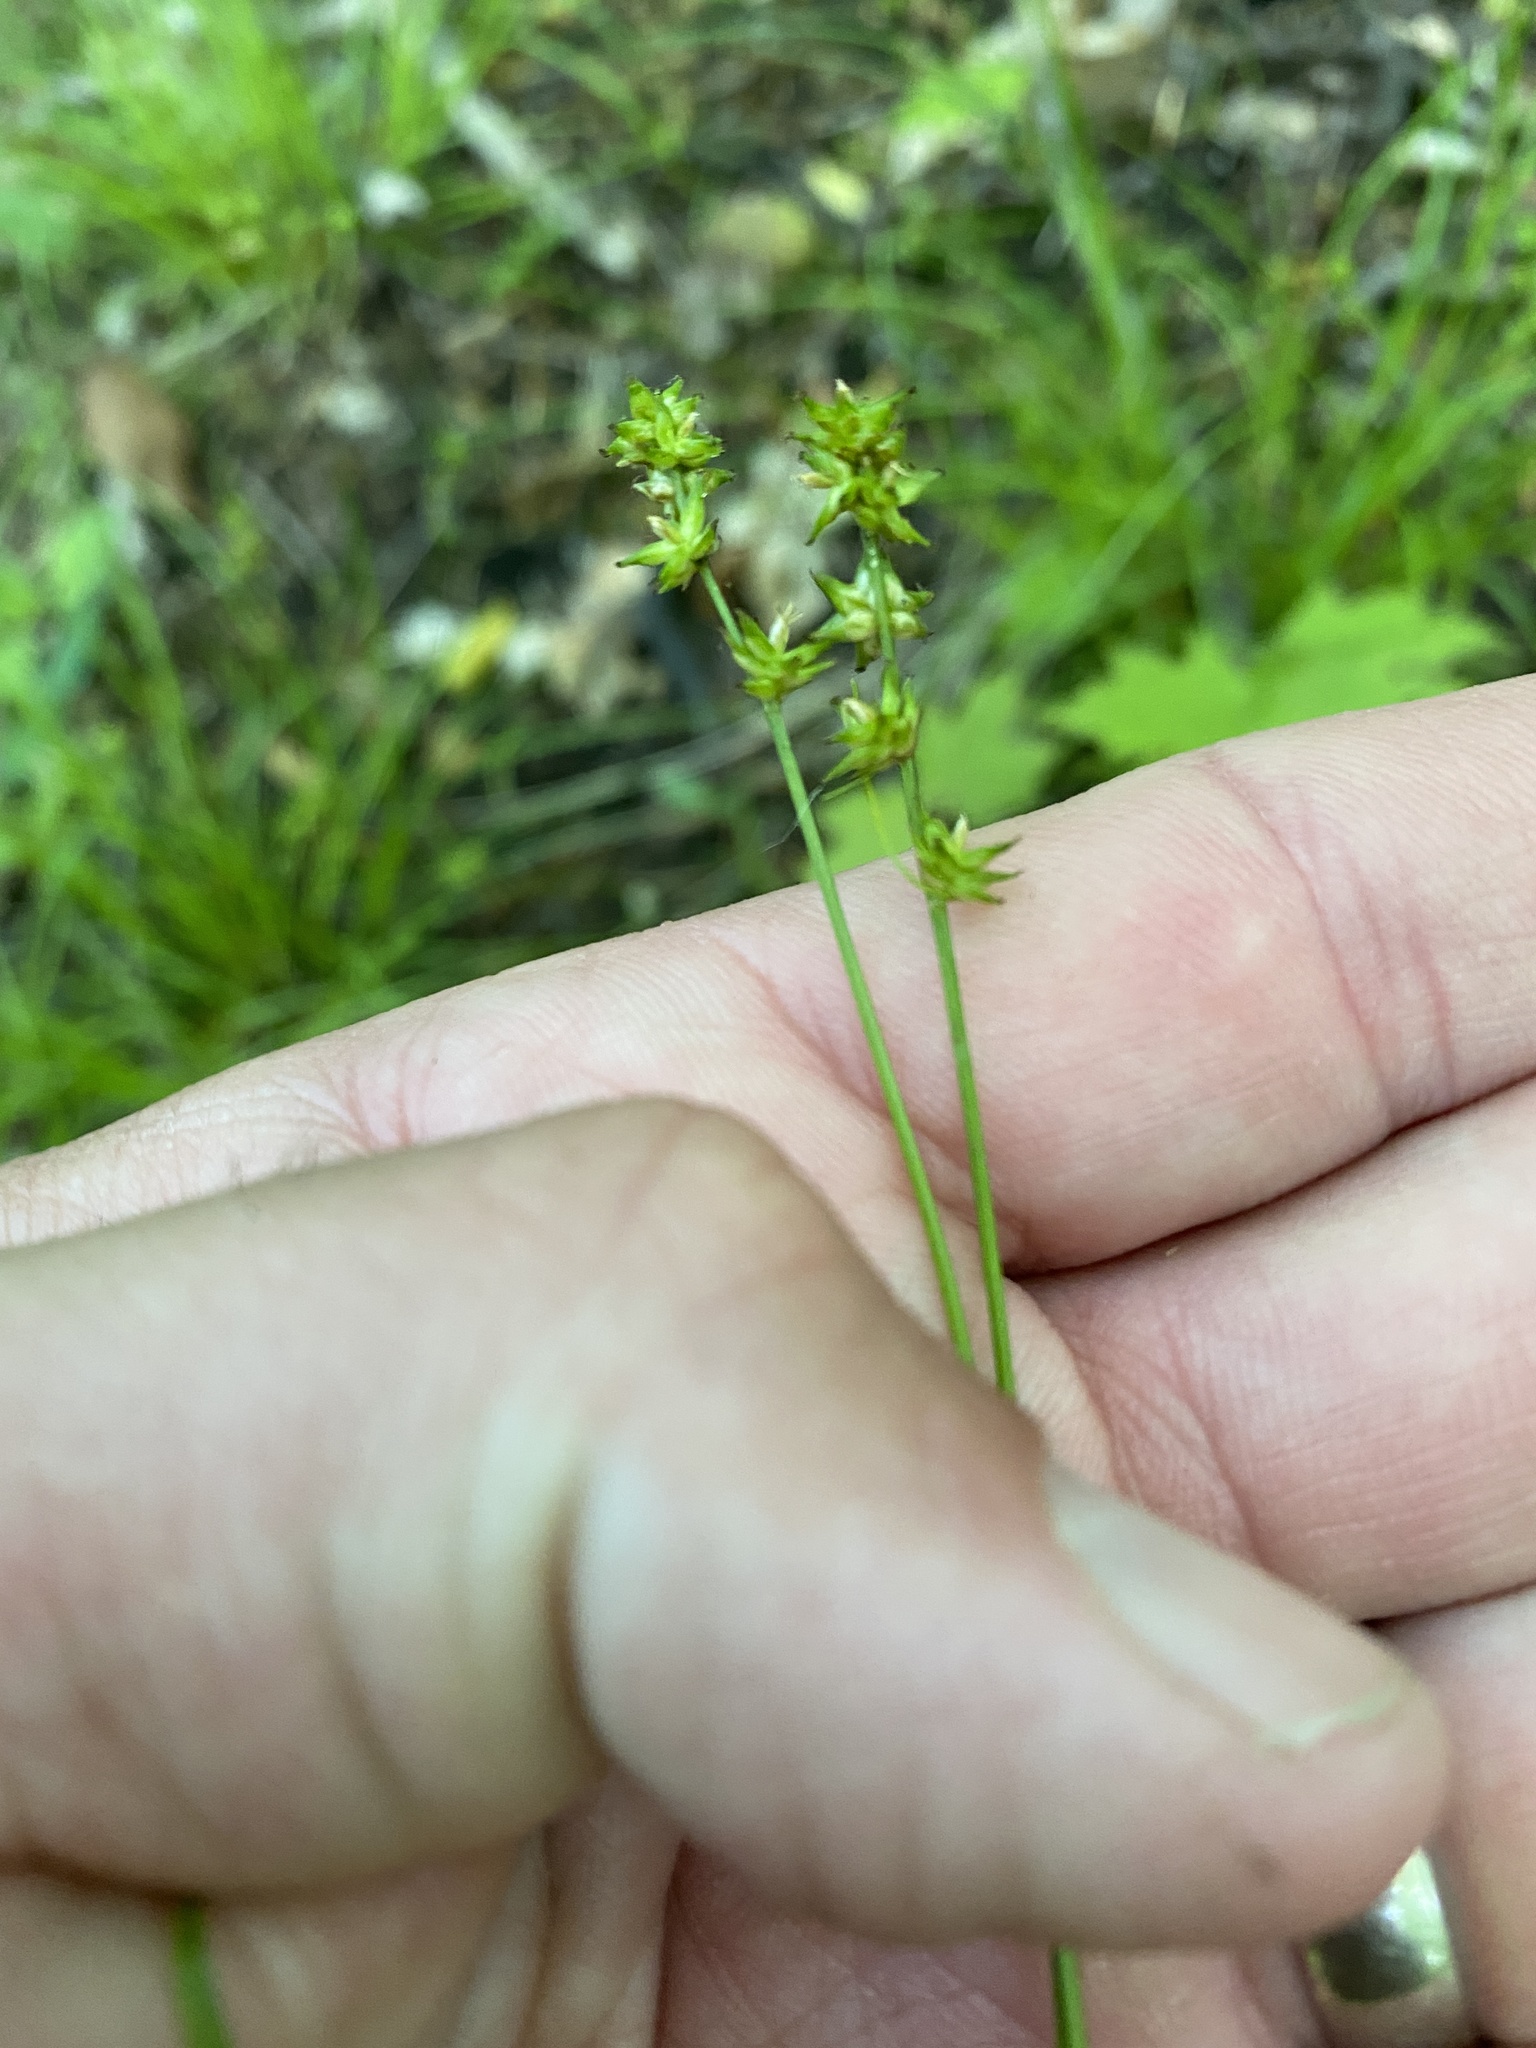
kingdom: Plantae
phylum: Tracheophyta
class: Liliopsida
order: Poales
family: Cyperaceae
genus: Carex
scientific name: Carex rosea
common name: Curly-styled wood sedge
